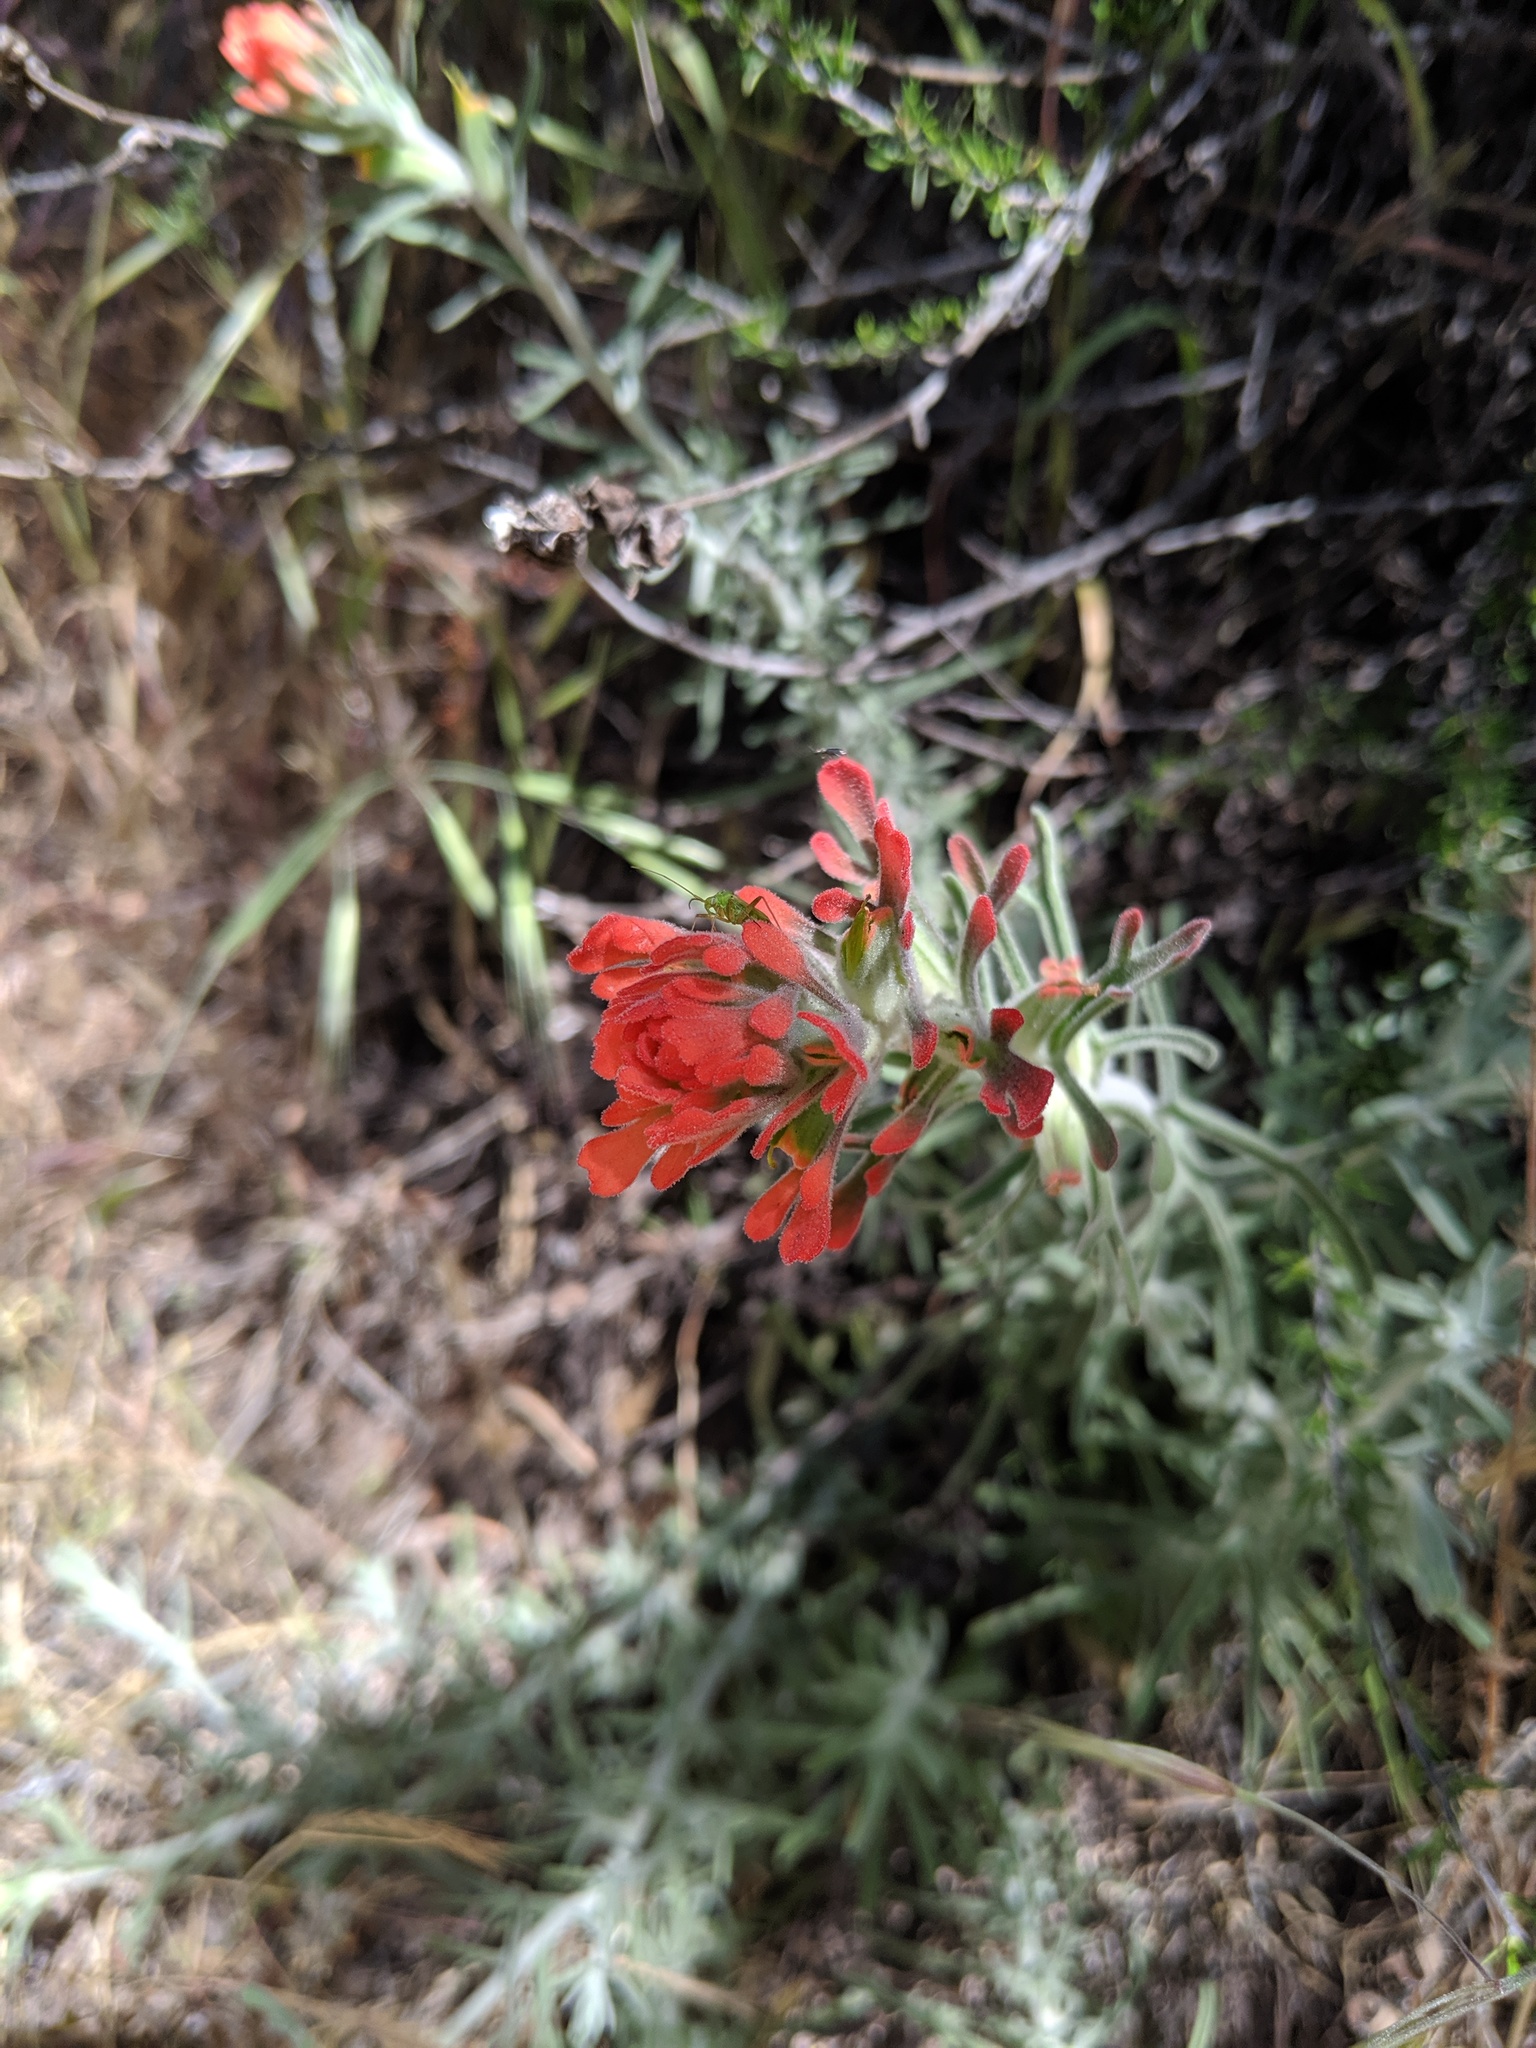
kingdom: Plantae
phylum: Tracheophyta
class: Magnoliopsida
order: Lamiales
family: Orobanchaceae
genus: Castilleja
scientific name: Castilleja foliolosa
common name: Woolly indian paintbrush
